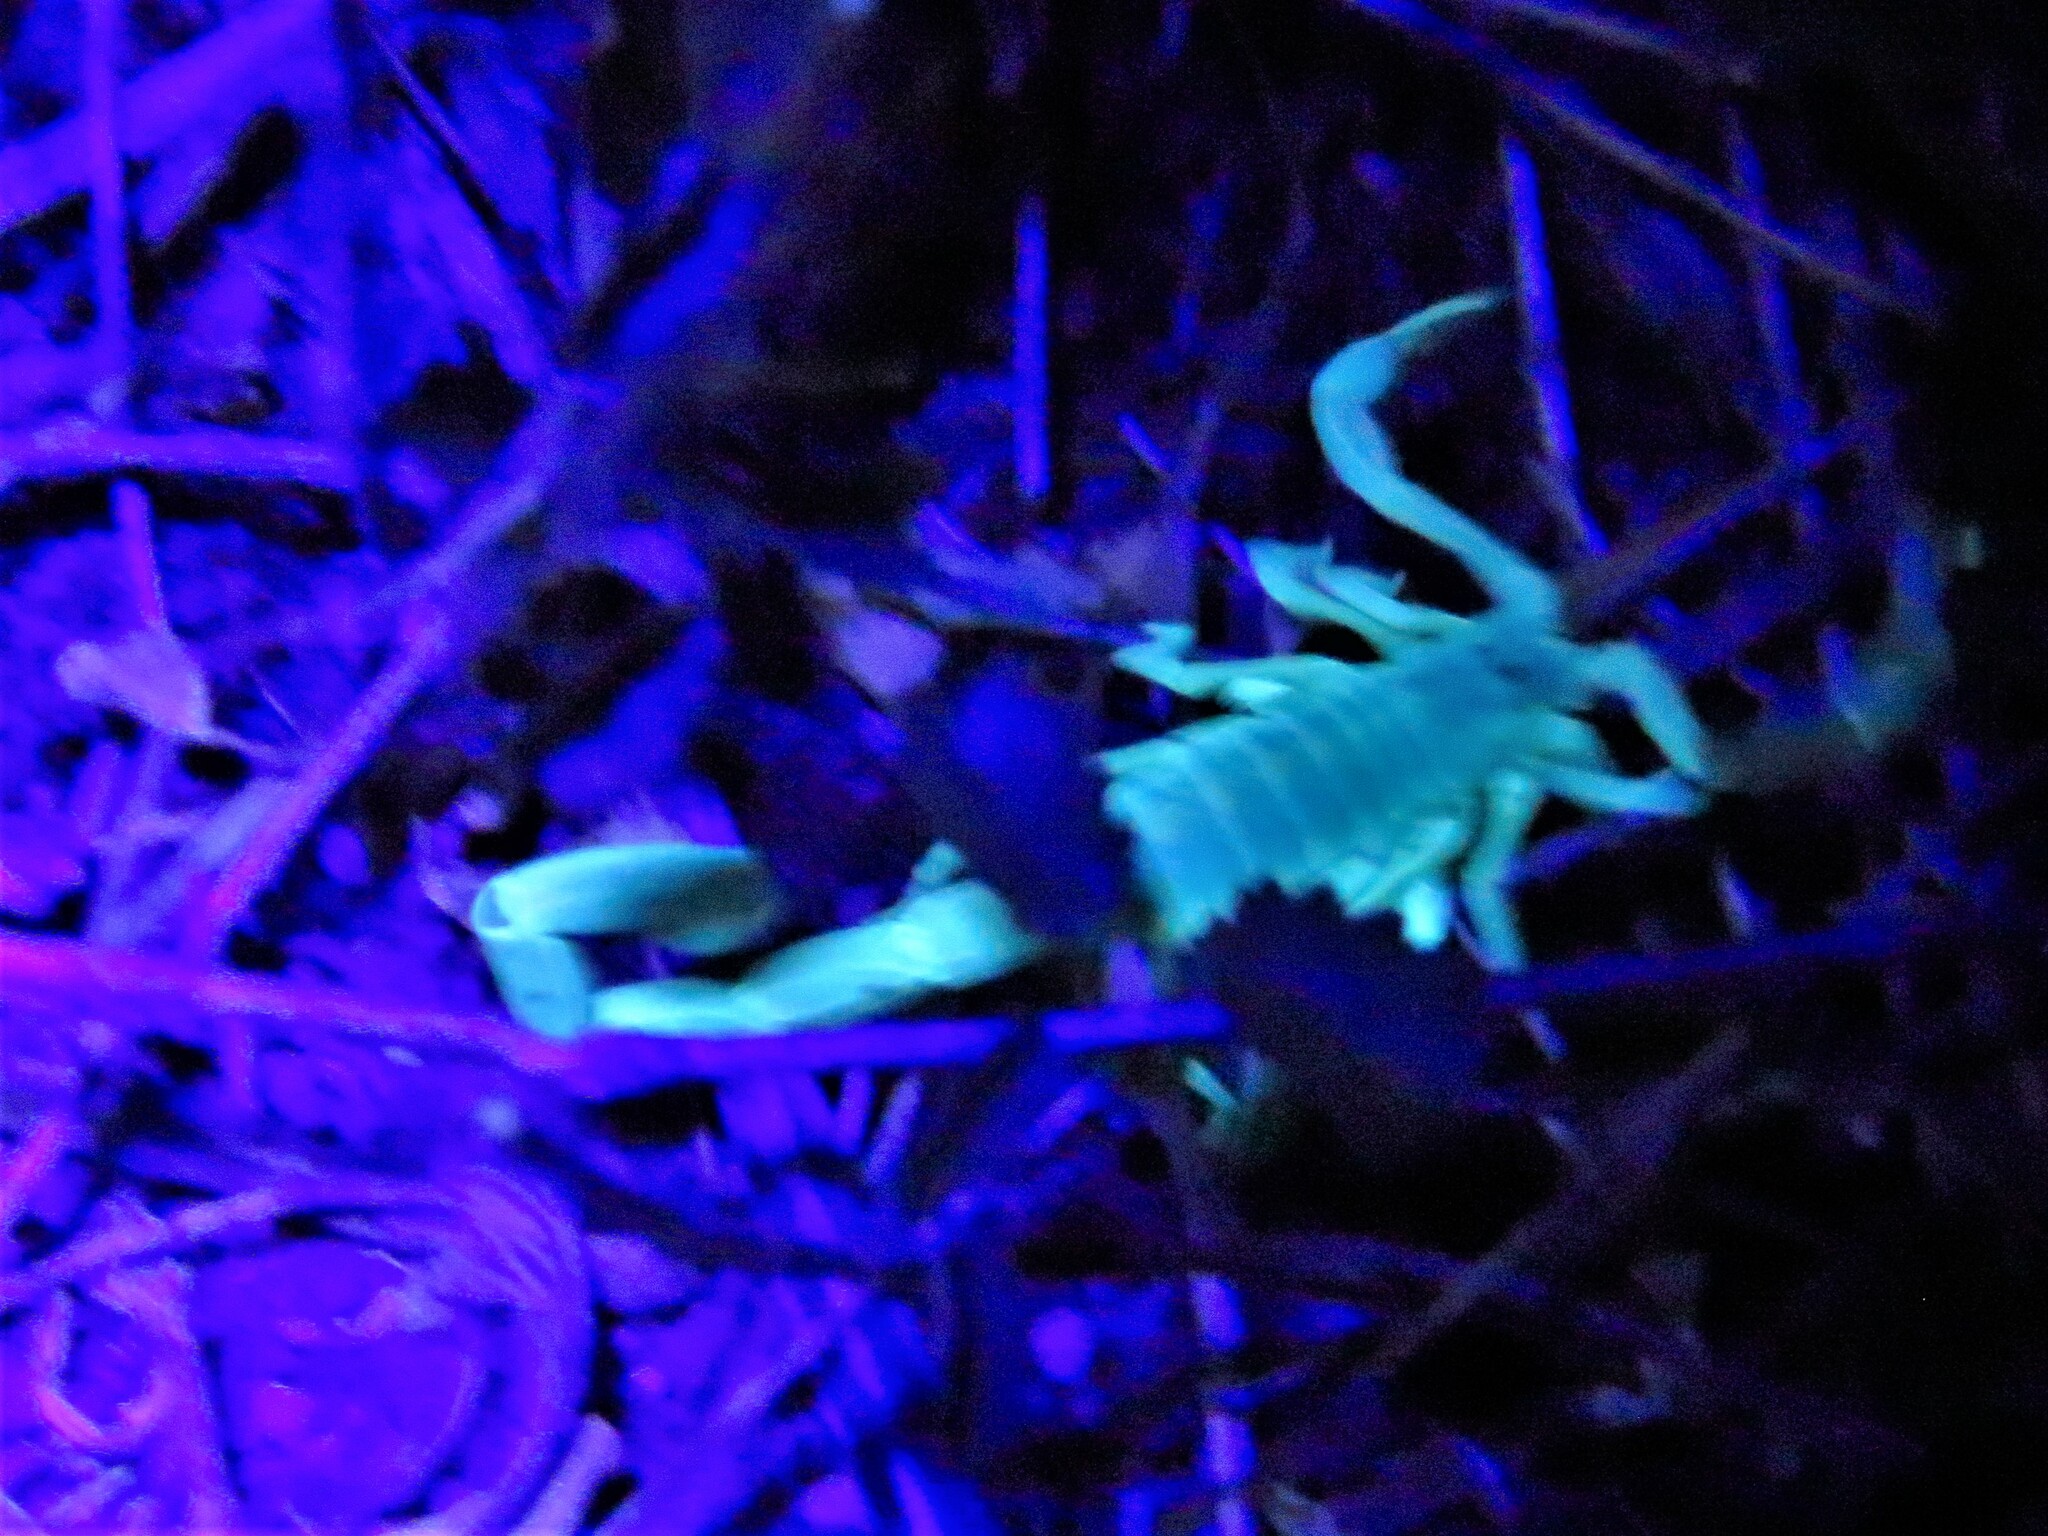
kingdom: Animalia
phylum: Arthropoda
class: Arachnida
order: Scorpiones
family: Buthidae
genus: Centruroides
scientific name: Centruroides vittatus
